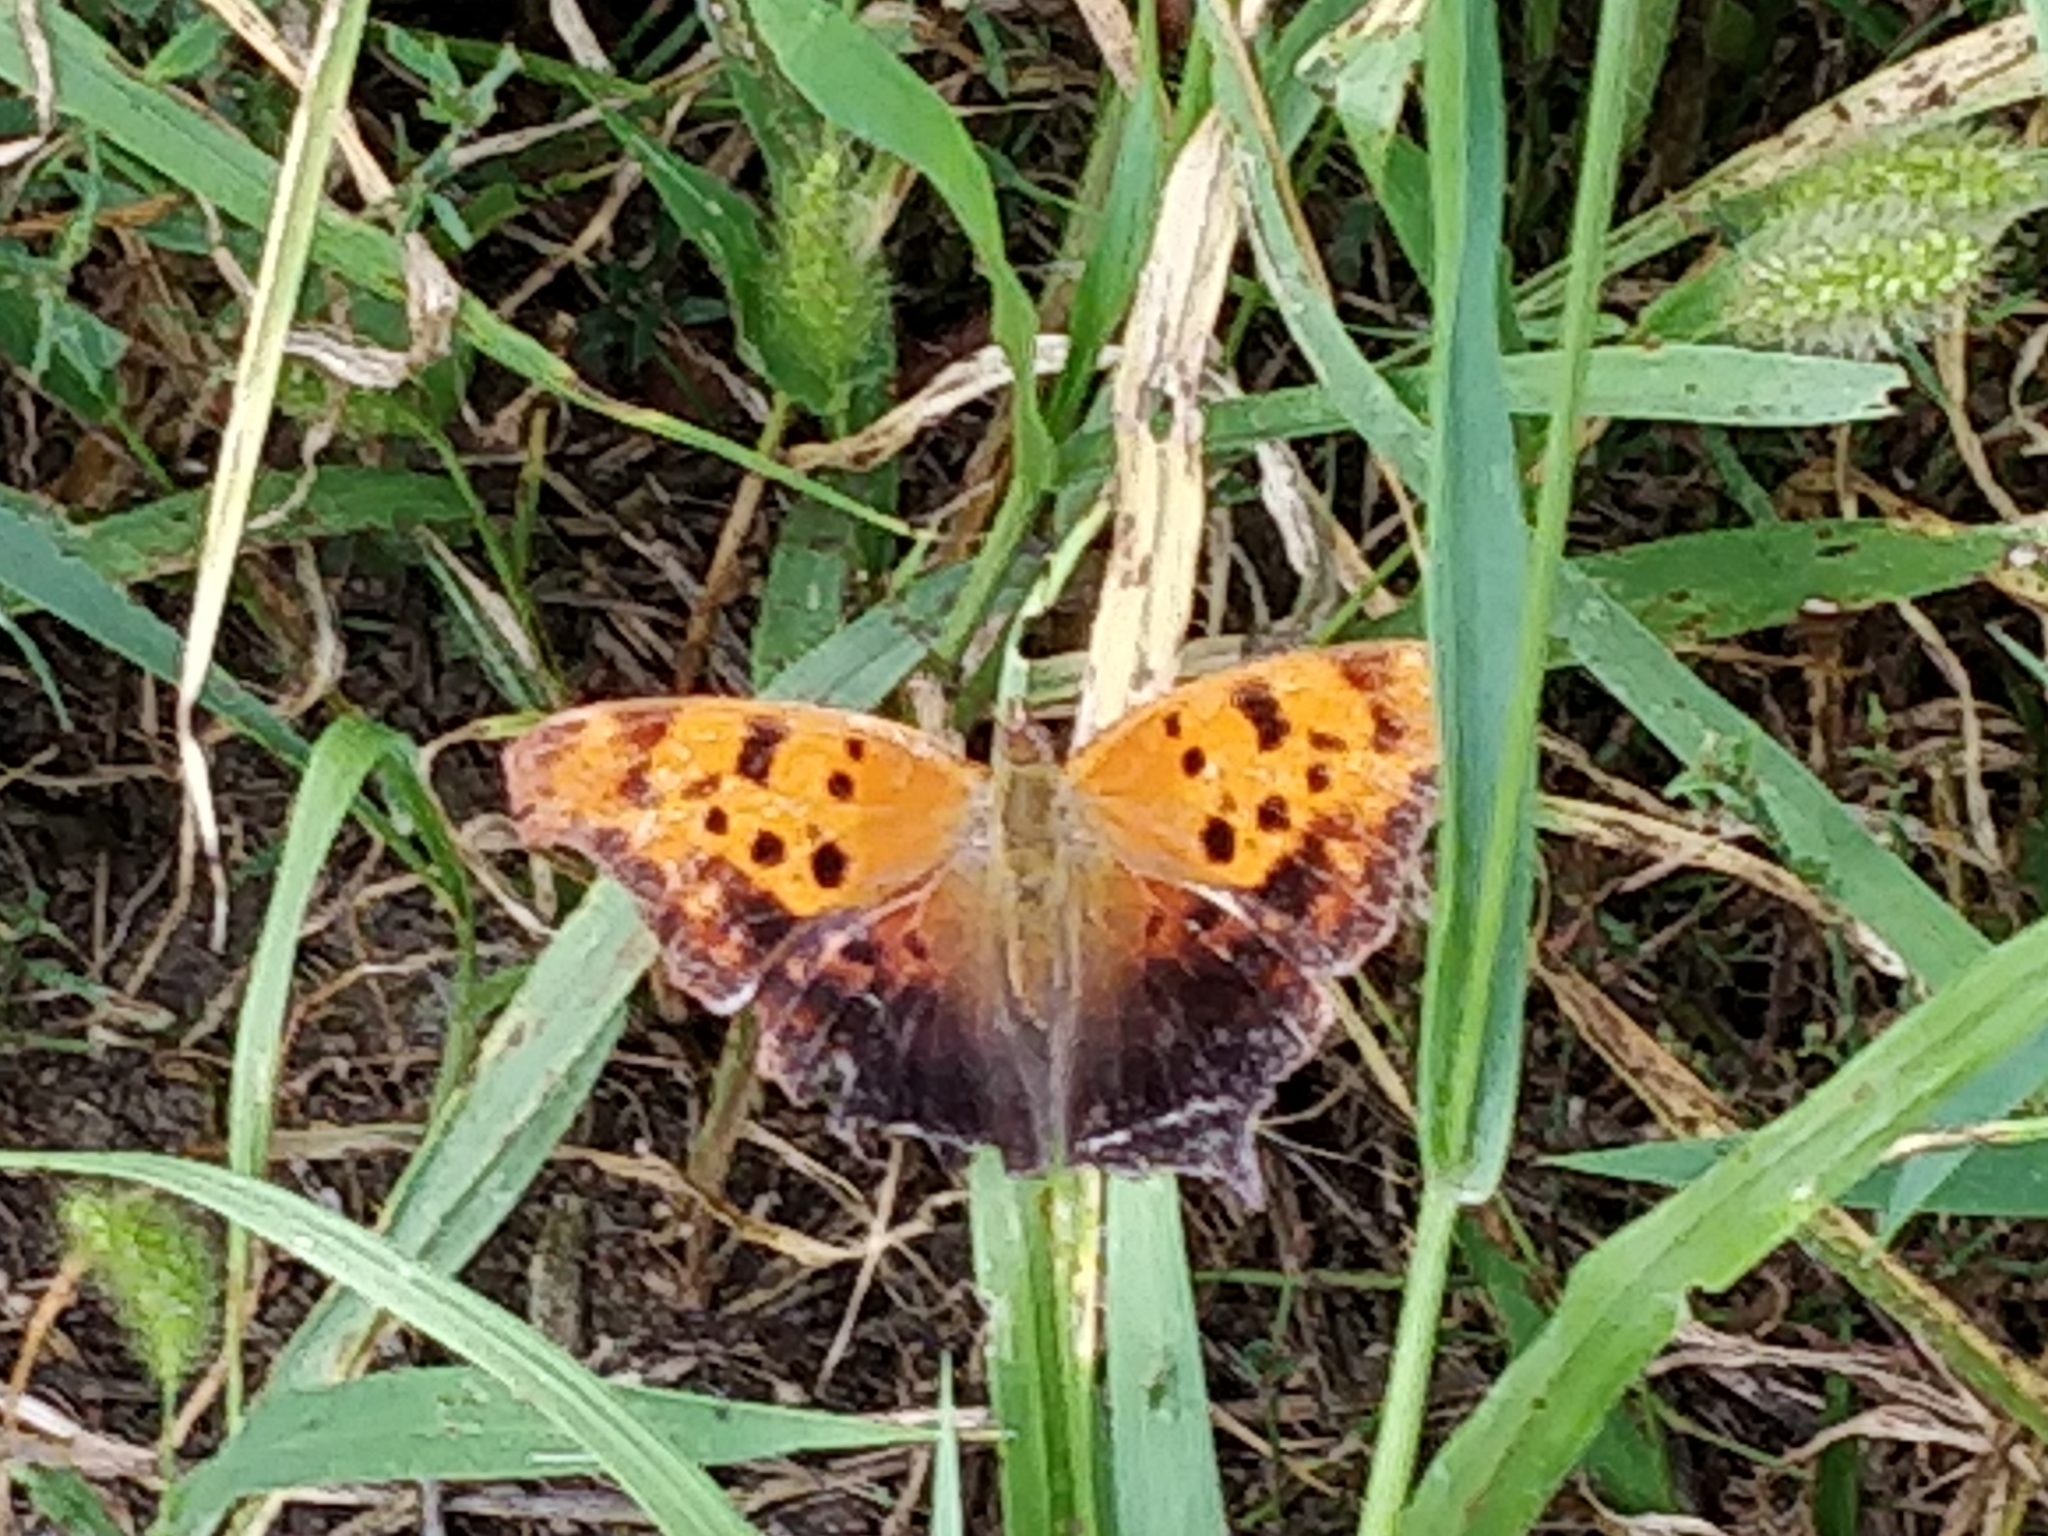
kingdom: Animalia
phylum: Arthropoda
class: Insecta
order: Lepidoptera
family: Nymphalidae
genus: Polygonia
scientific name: Polygonia interrogationis
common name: Question mark
